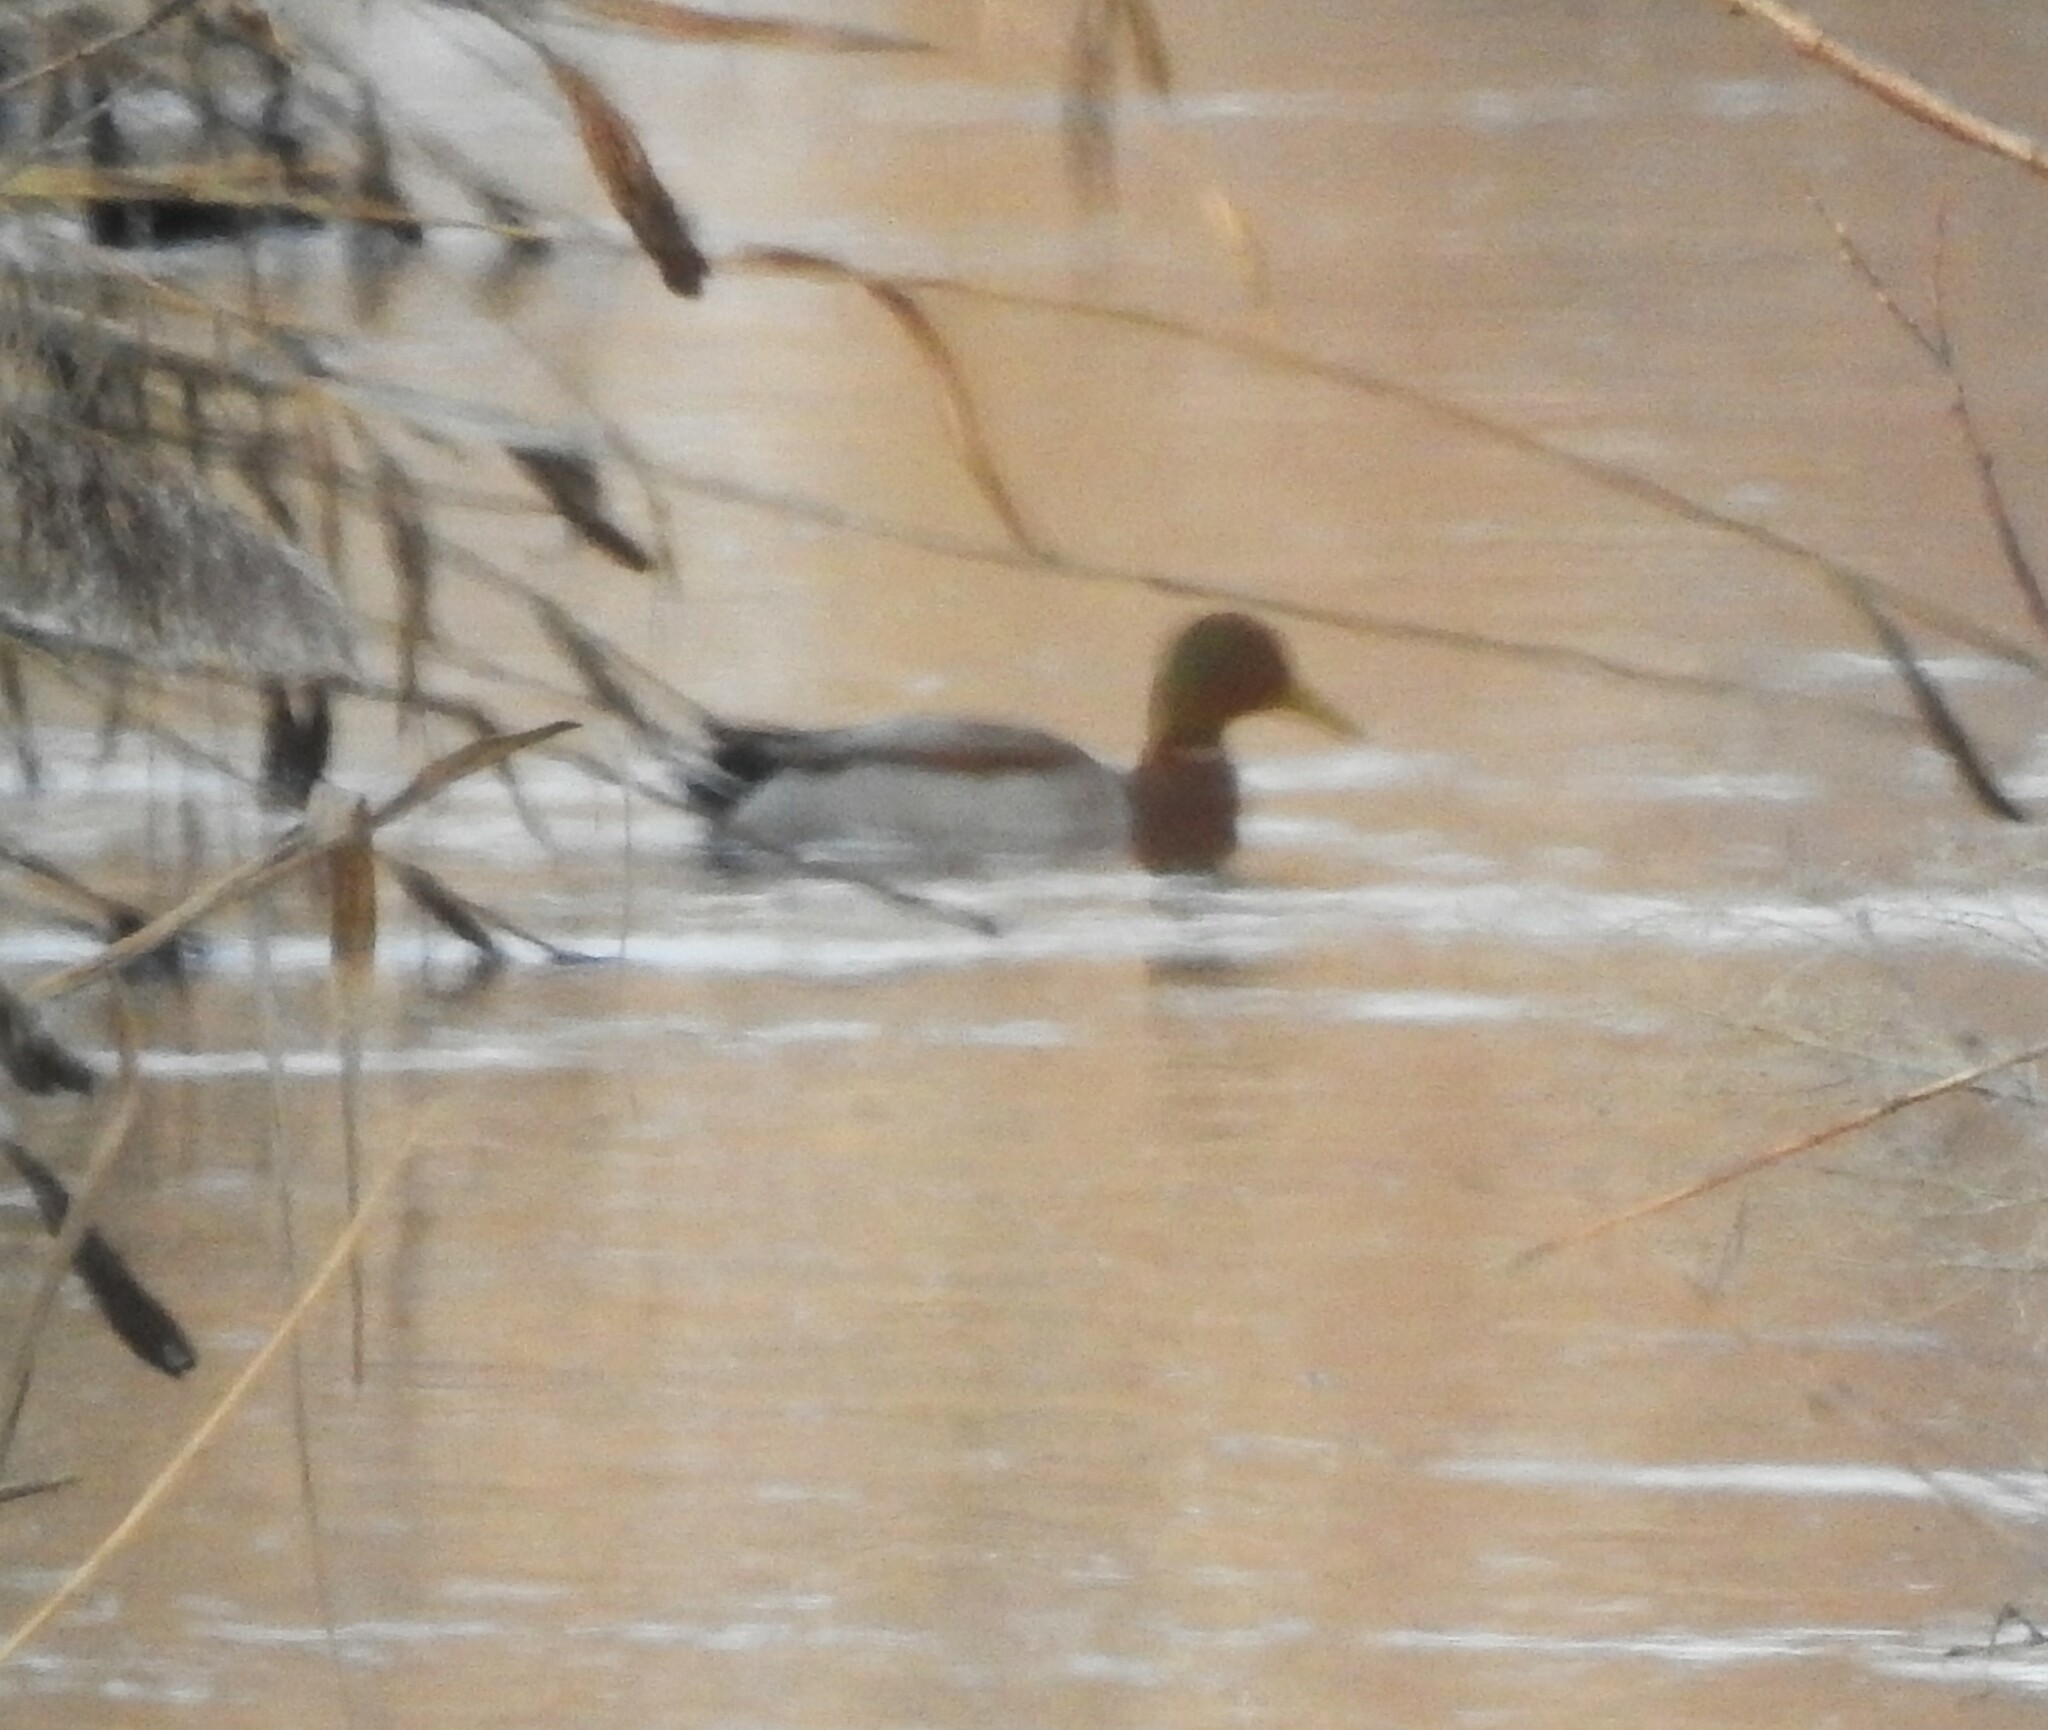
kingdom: Animalia
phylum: Chordata
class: Aves
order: Anseriformes
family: Anatidae
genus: Anas
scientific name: Anas platyrhynchos
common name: Mallard
